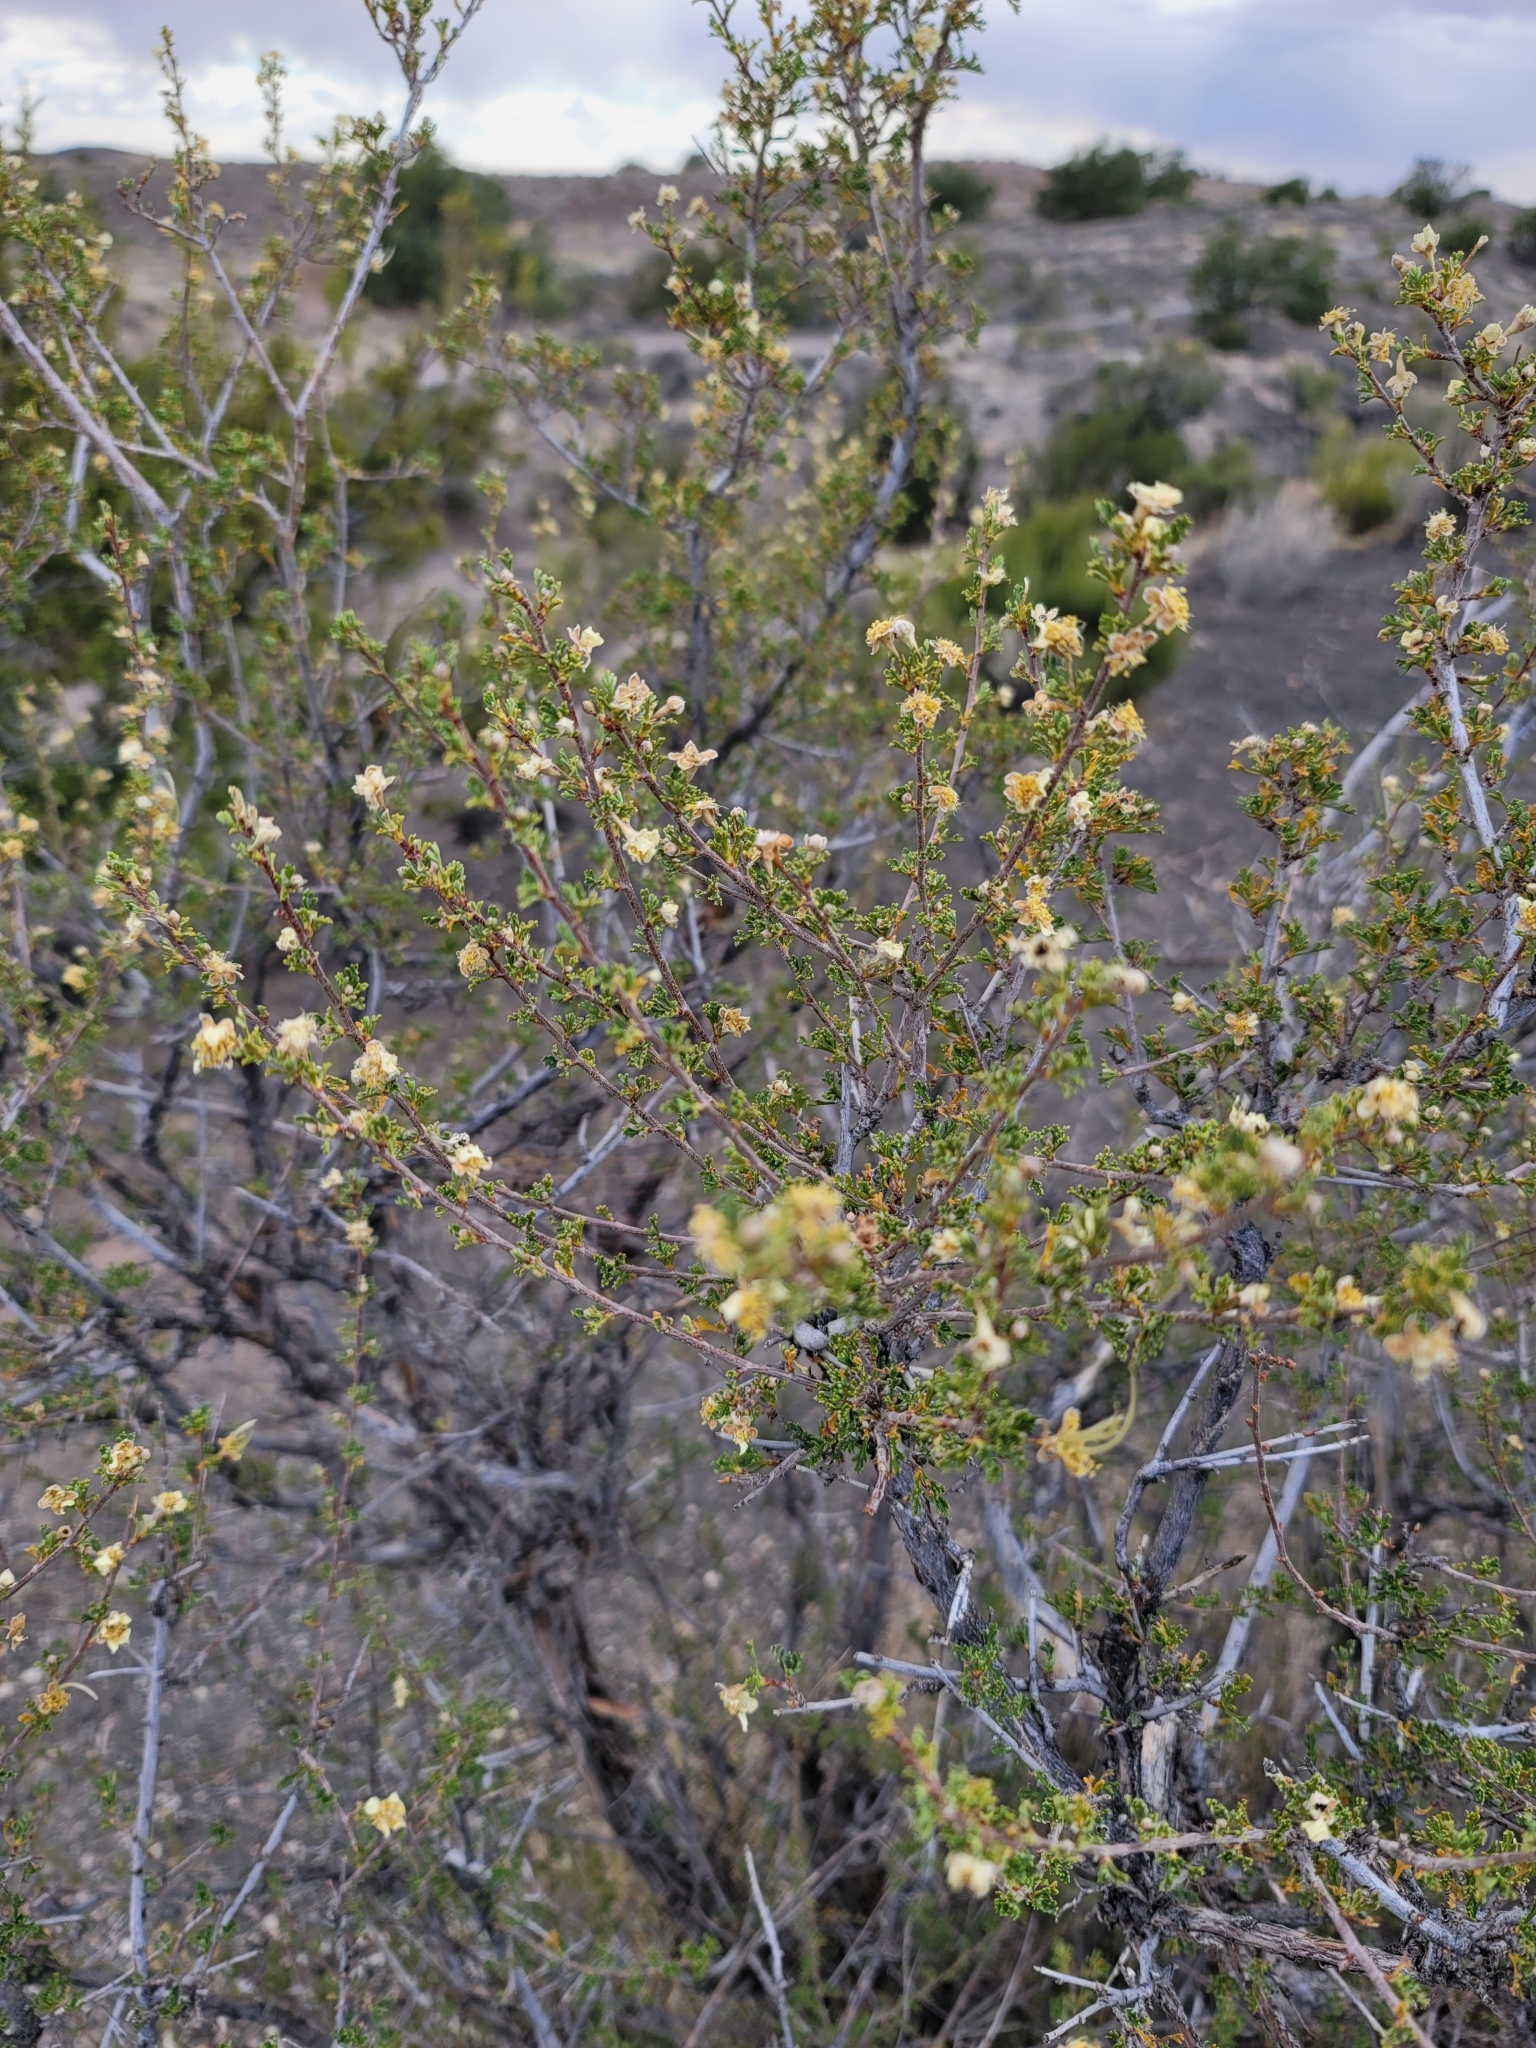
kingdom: Plantae
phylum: Tracheophyta
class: Magnoliopsida
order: Rosales
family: Rosaceae
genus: Purshia
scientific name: Purshia stansburiana
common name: Stansbury's cliffrose
